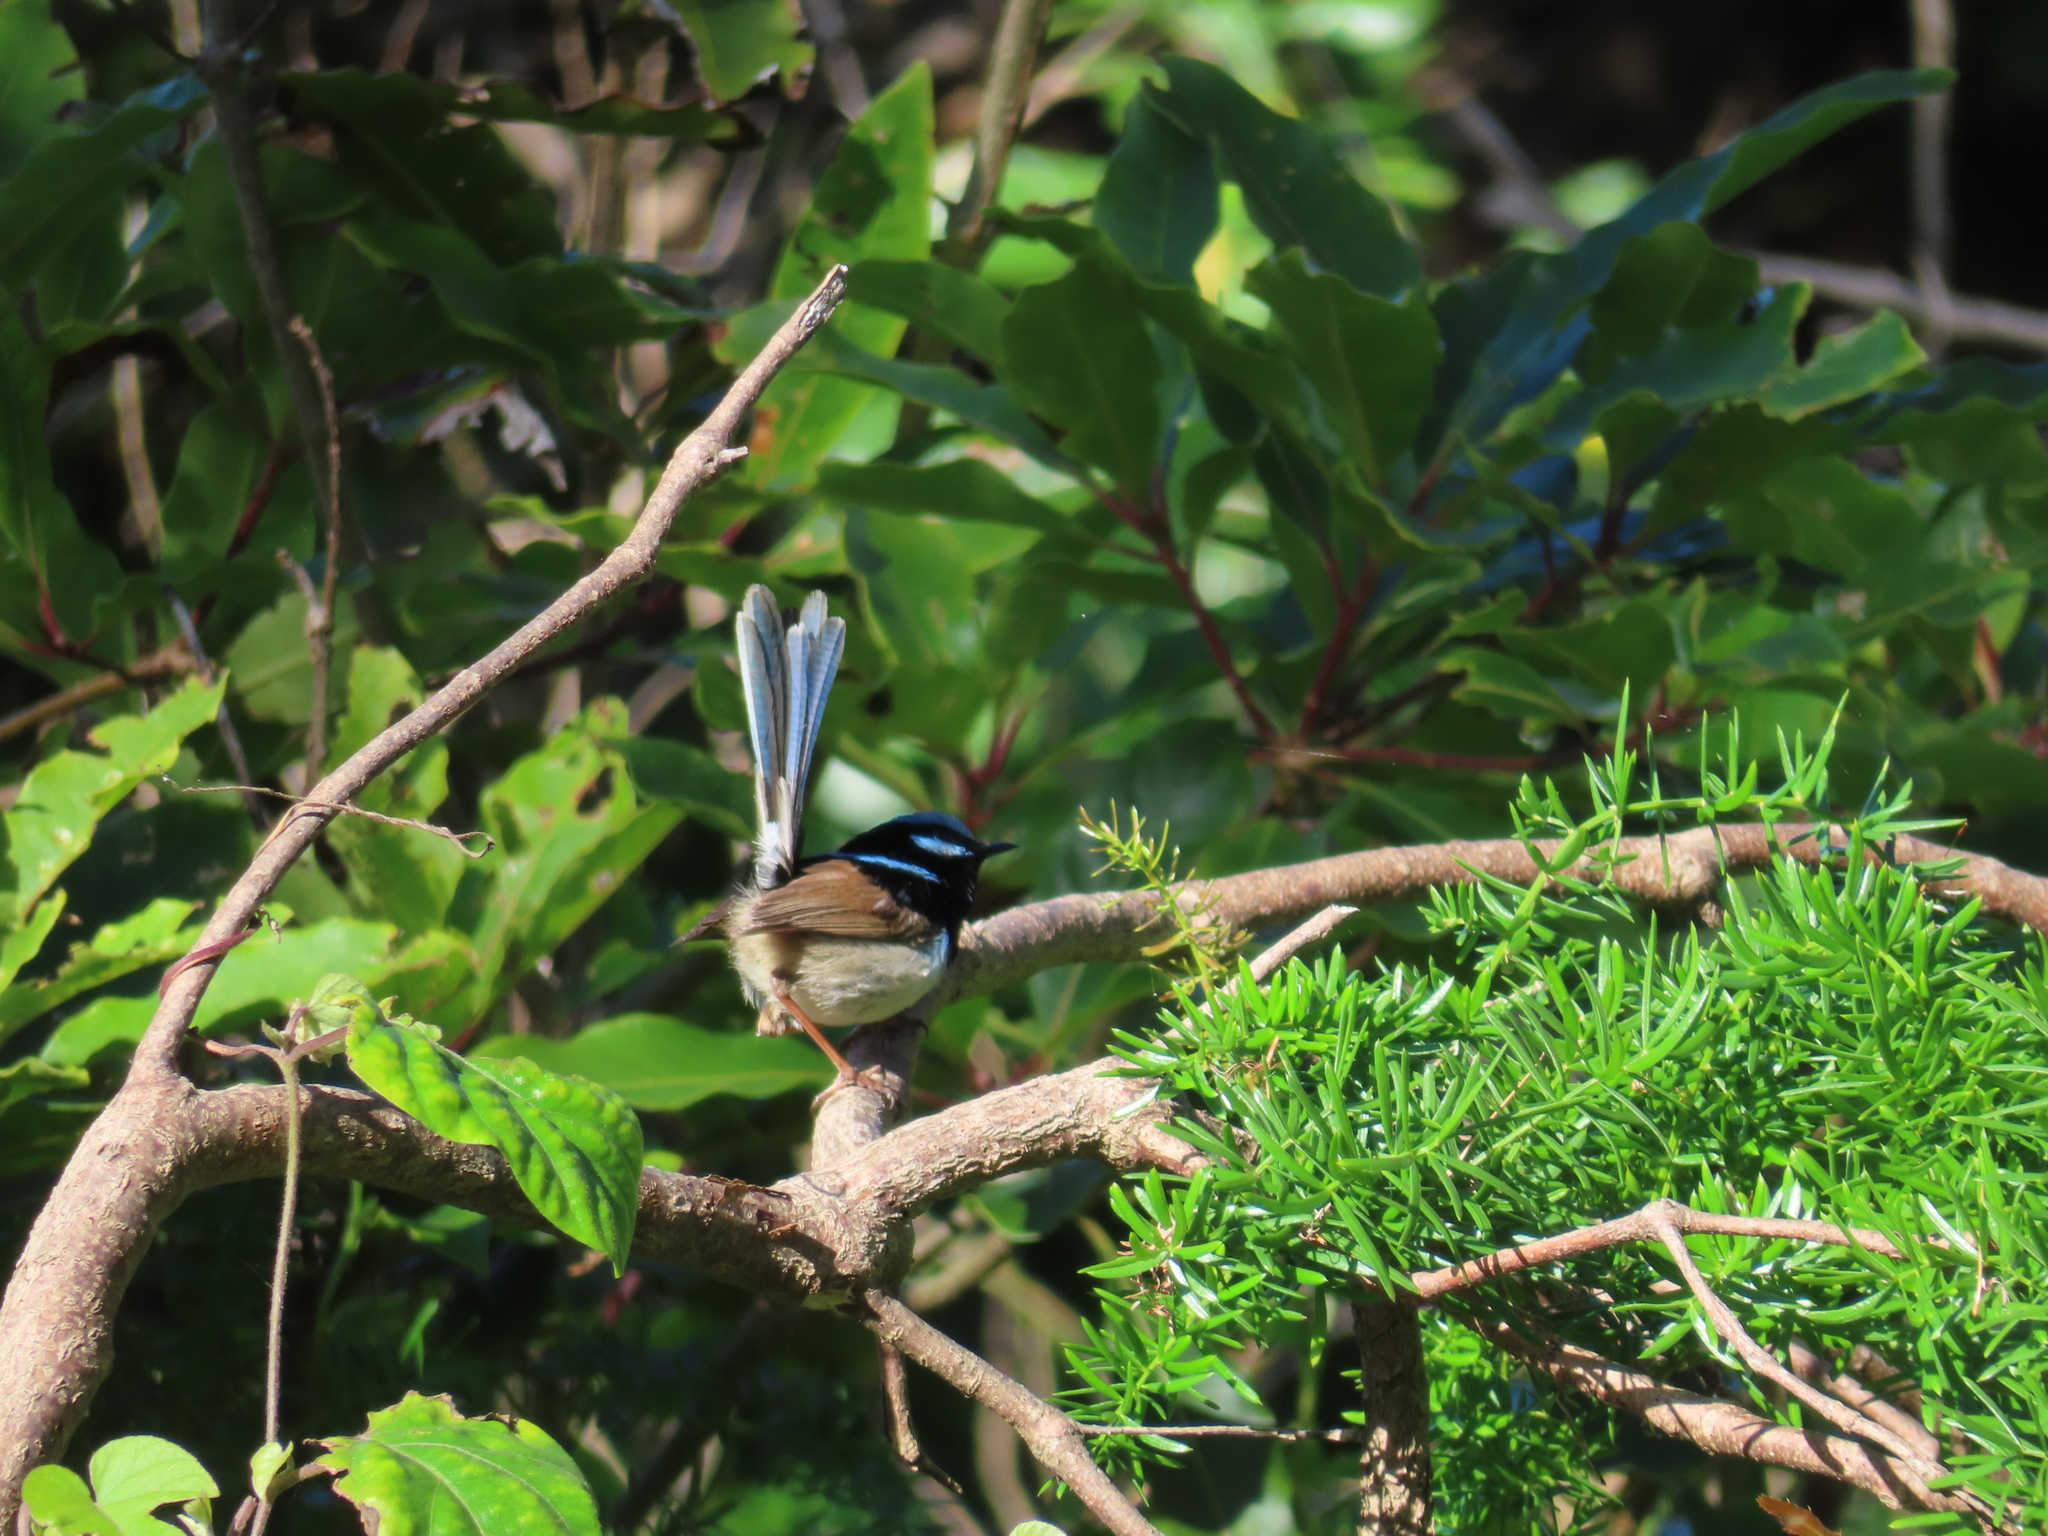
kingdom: Animalia
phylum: Chordata
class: Aves
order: Passeriformes
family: Maluridae
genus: Malurus
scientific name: Malurus cyaneus
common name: Superb fairywren
